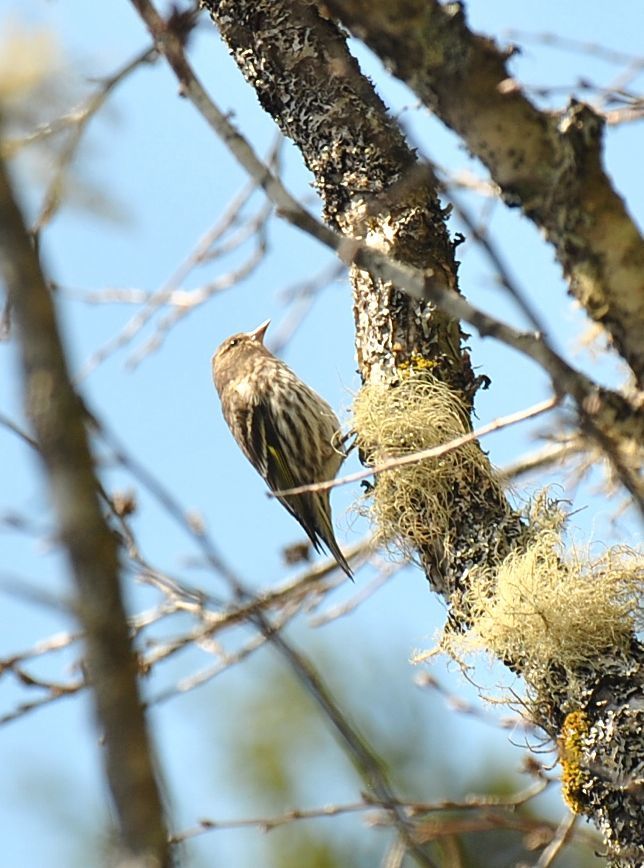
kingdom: Animalia
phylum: Chordata
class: Aves
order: Passeriformes
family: Fringillidae
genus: Spinus
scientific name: Spinus pinus
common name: Pine siskin
